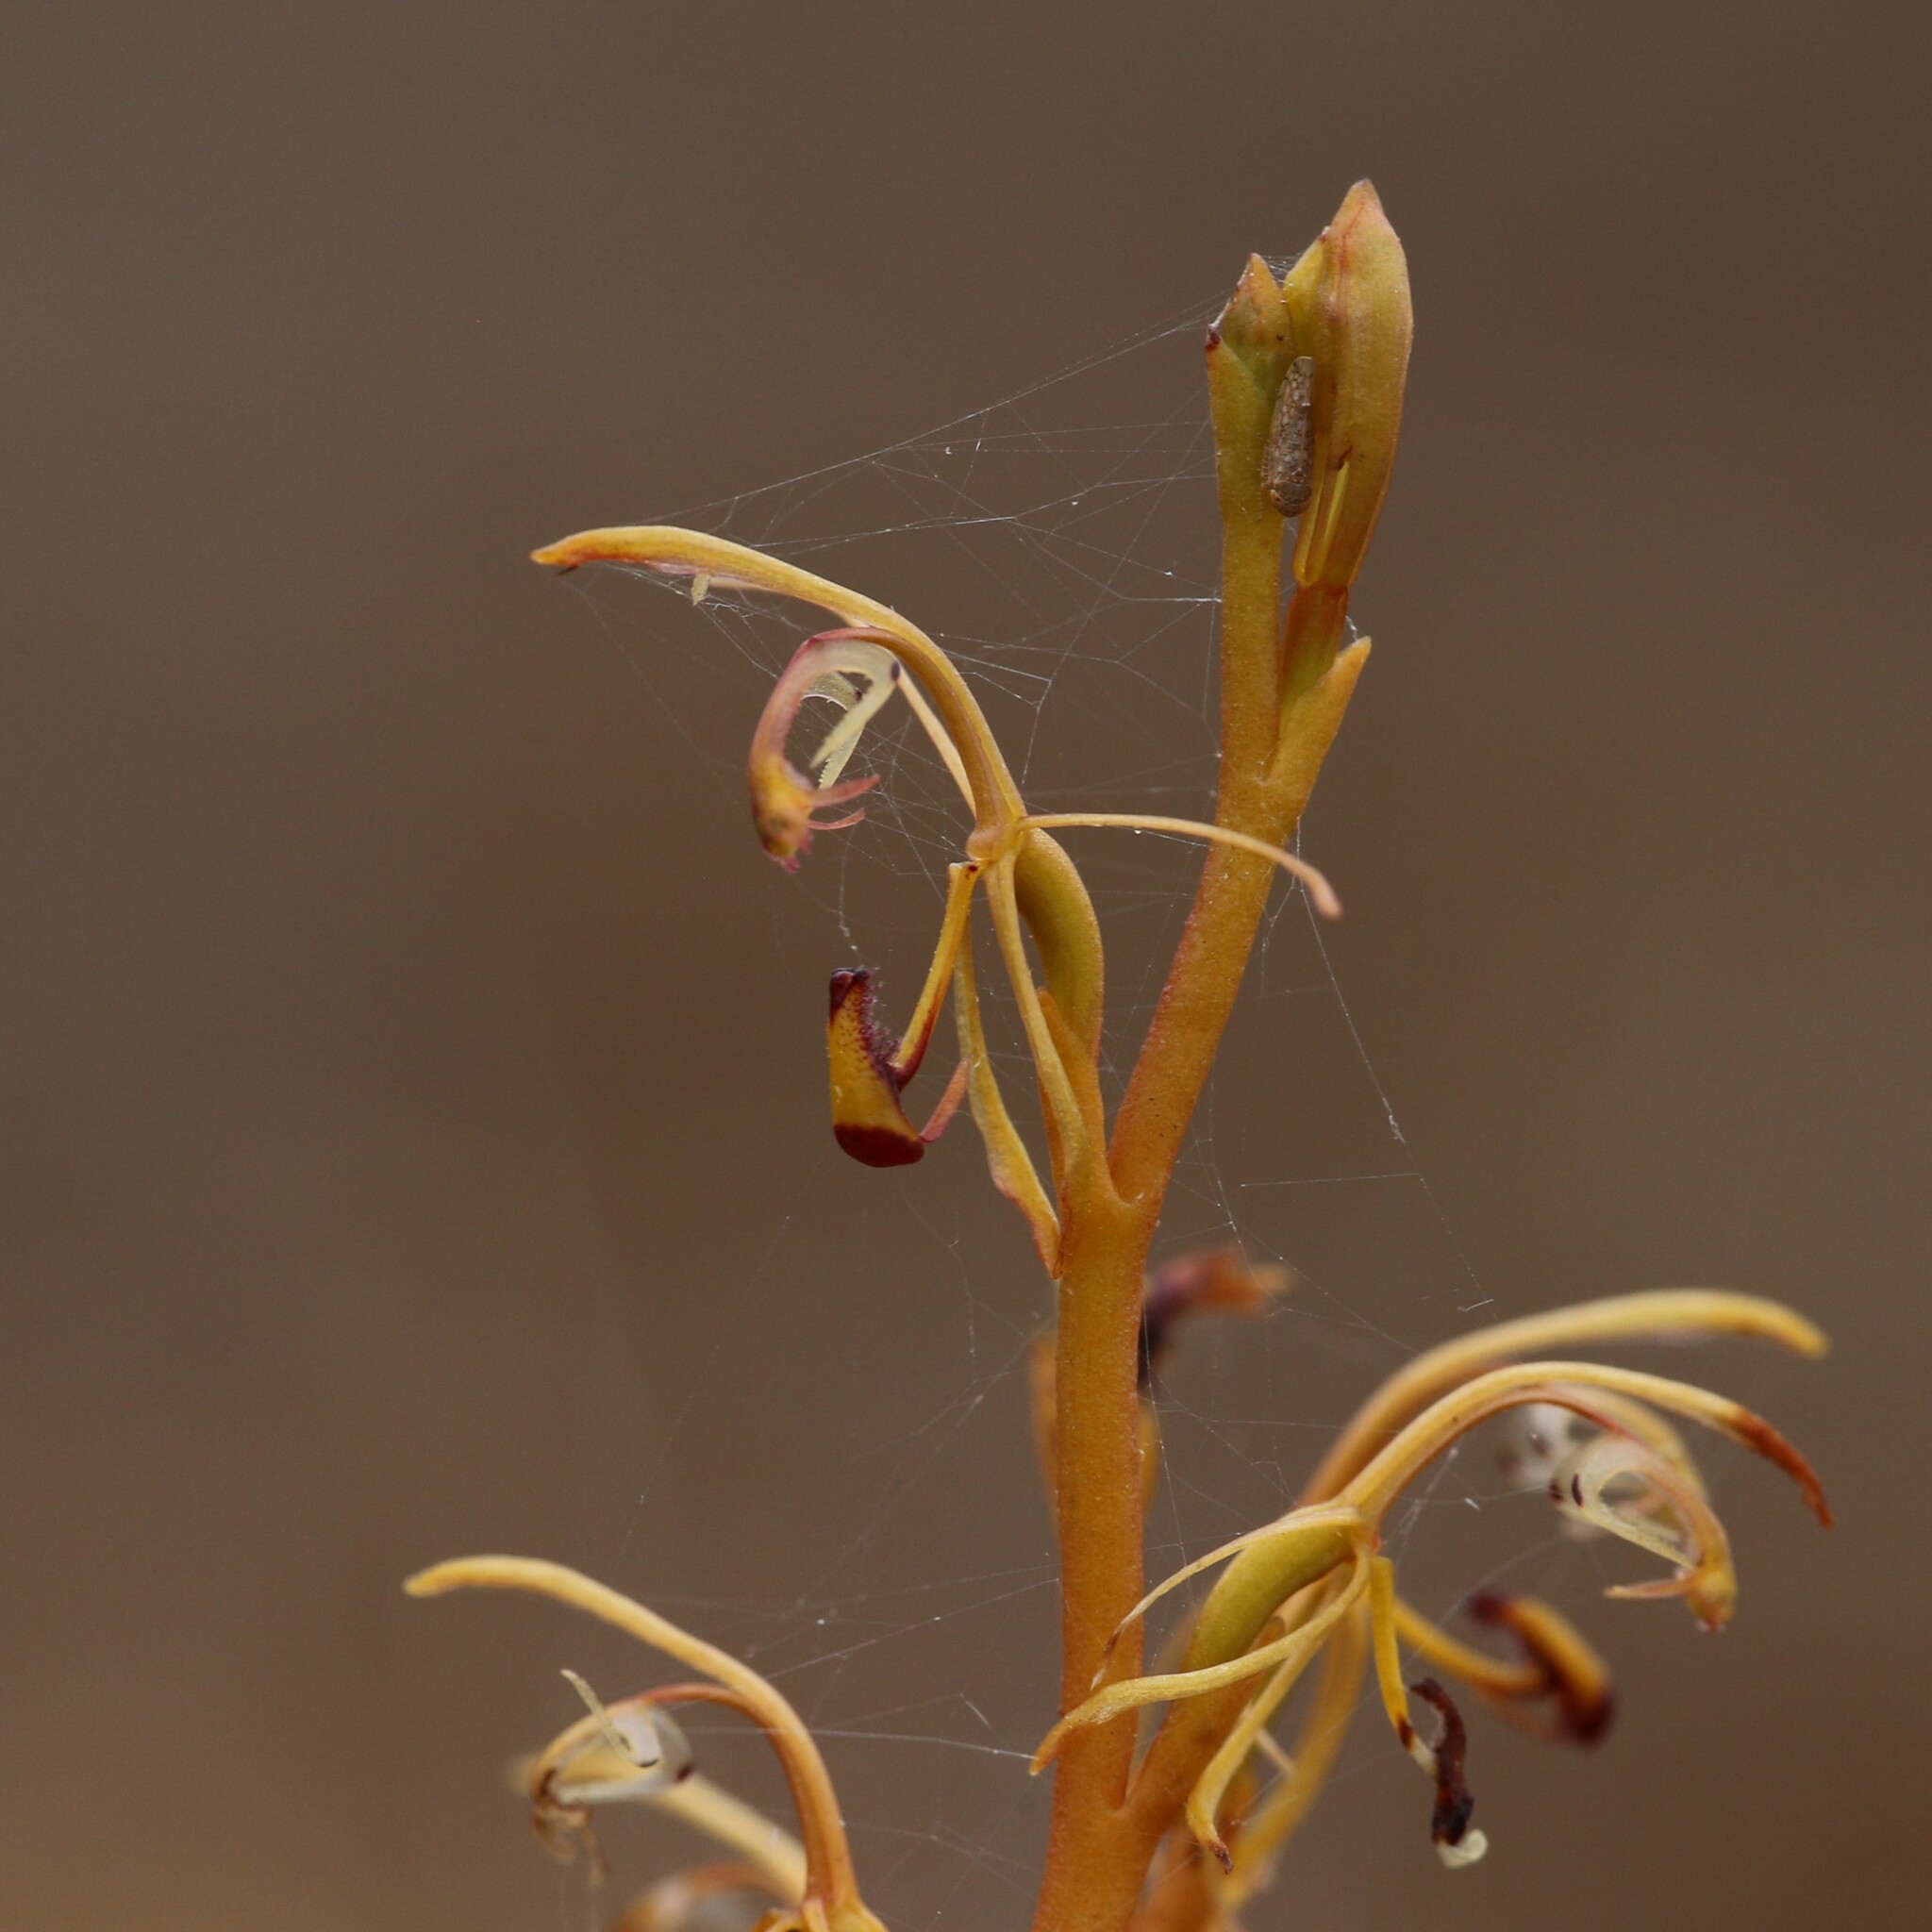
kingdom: Plantae
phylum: Tracheophyta
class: Liliopsida
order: Asparagales
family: Orchidaceae
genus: Spiculaea
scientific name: Spiculaea ciliata
